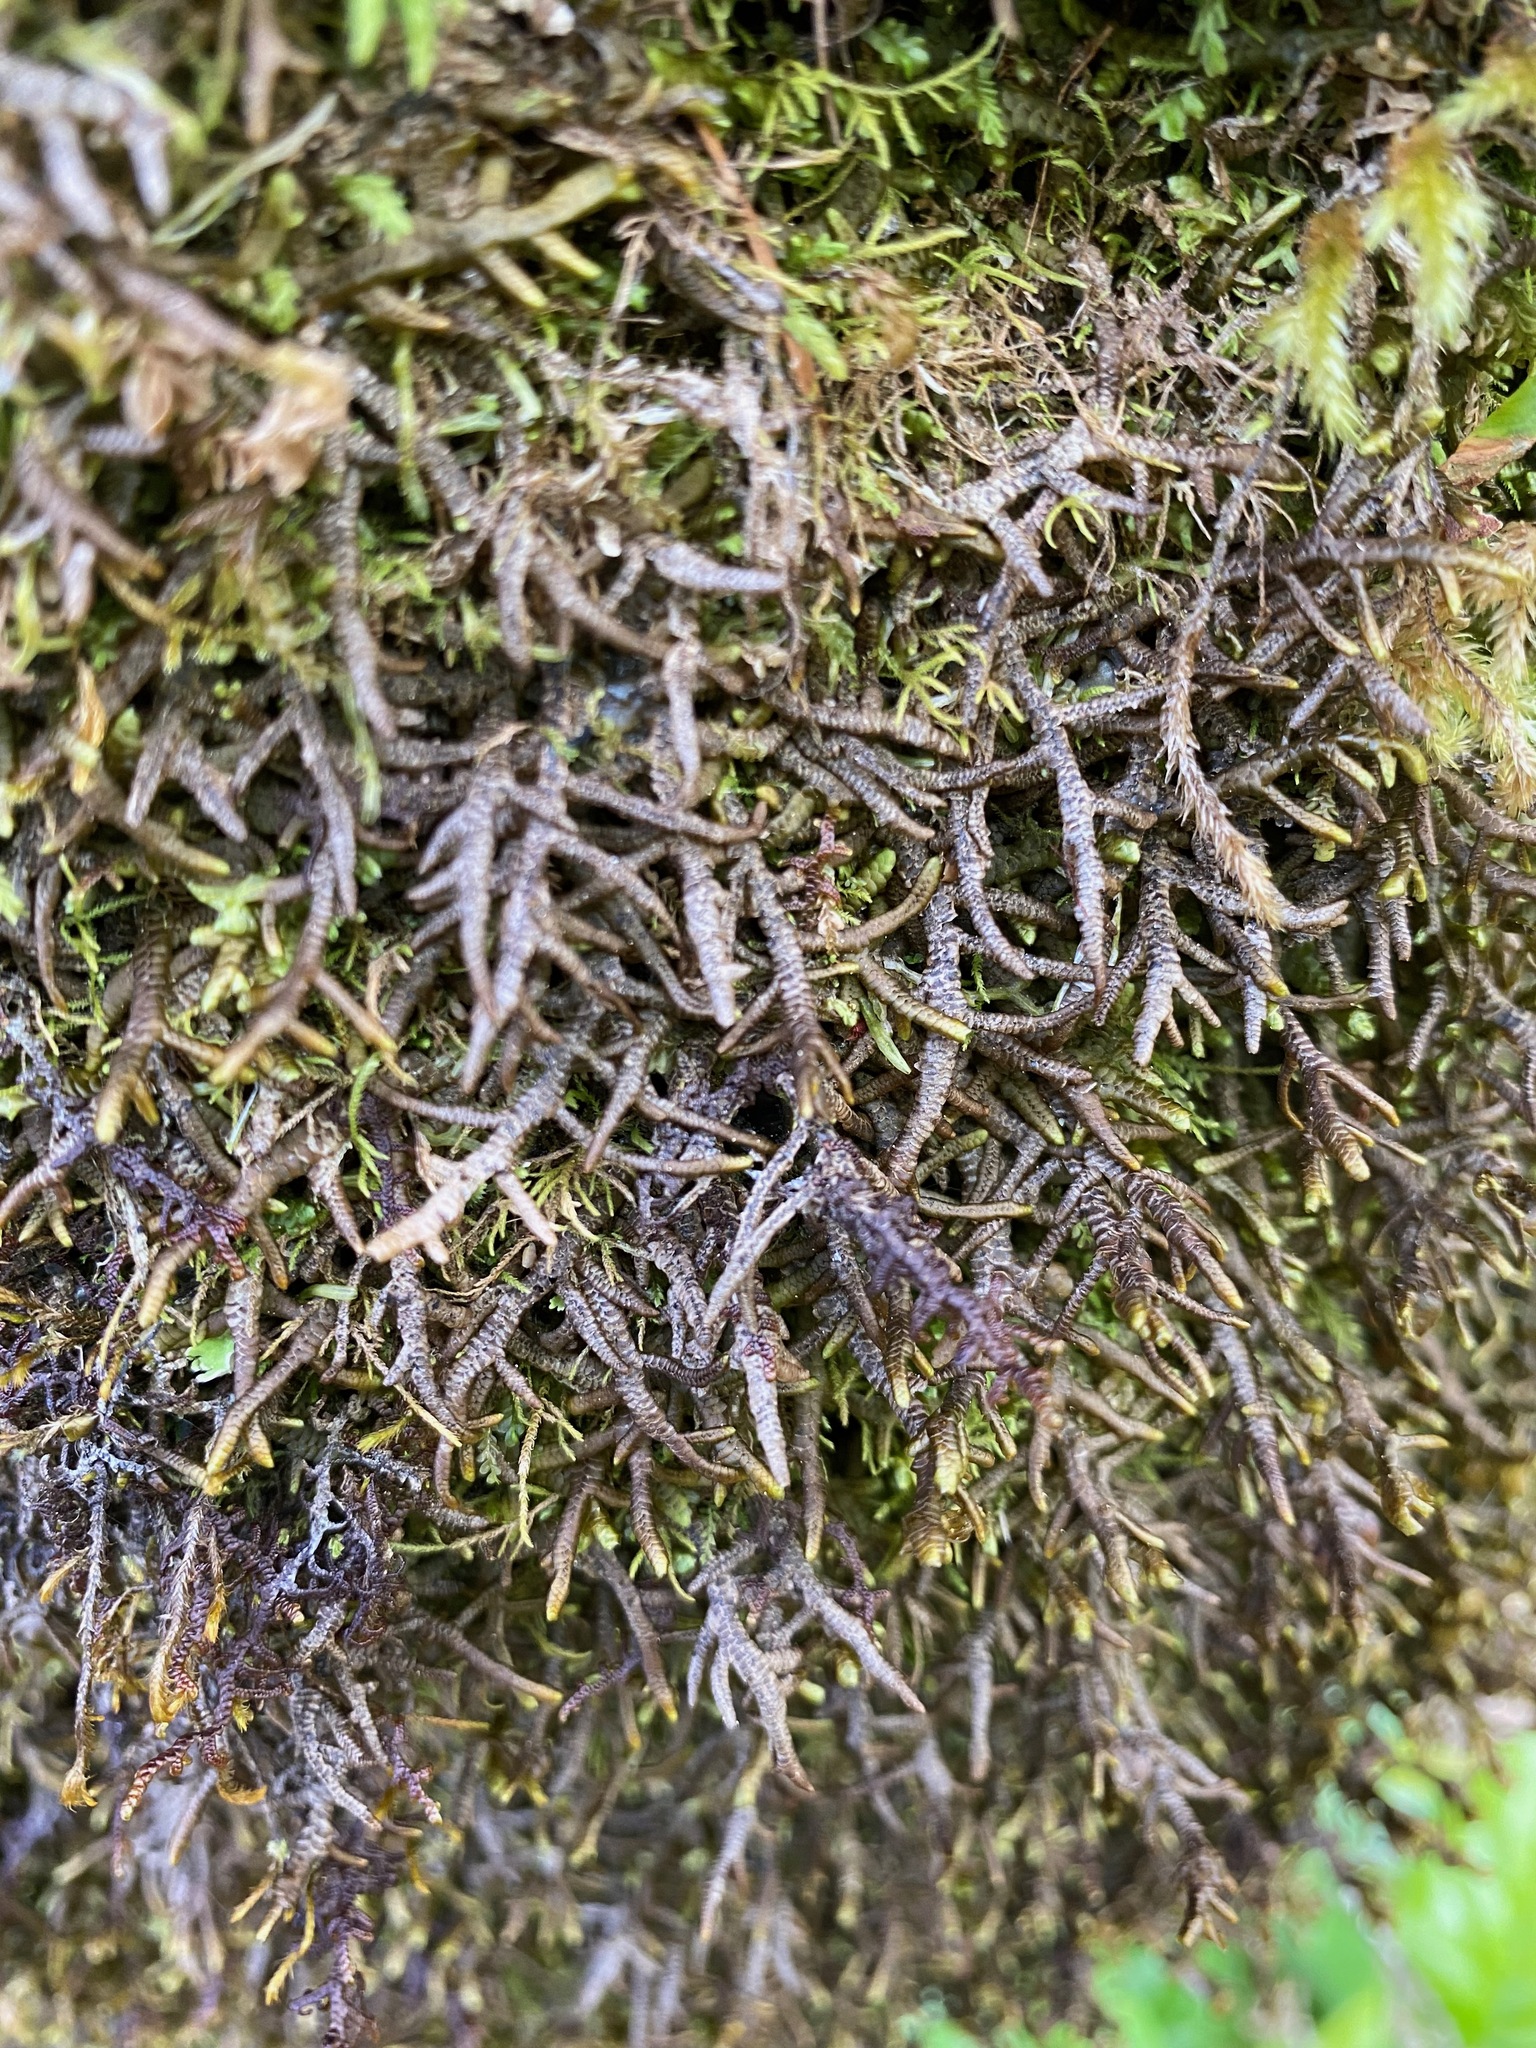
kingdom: Plantae
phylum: Marchantiophyta
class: Jungermanniopsida
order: Porellales
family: Porellaceae
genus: Porella
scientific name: Porella navicularis
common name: Tree ruffle liverwort
